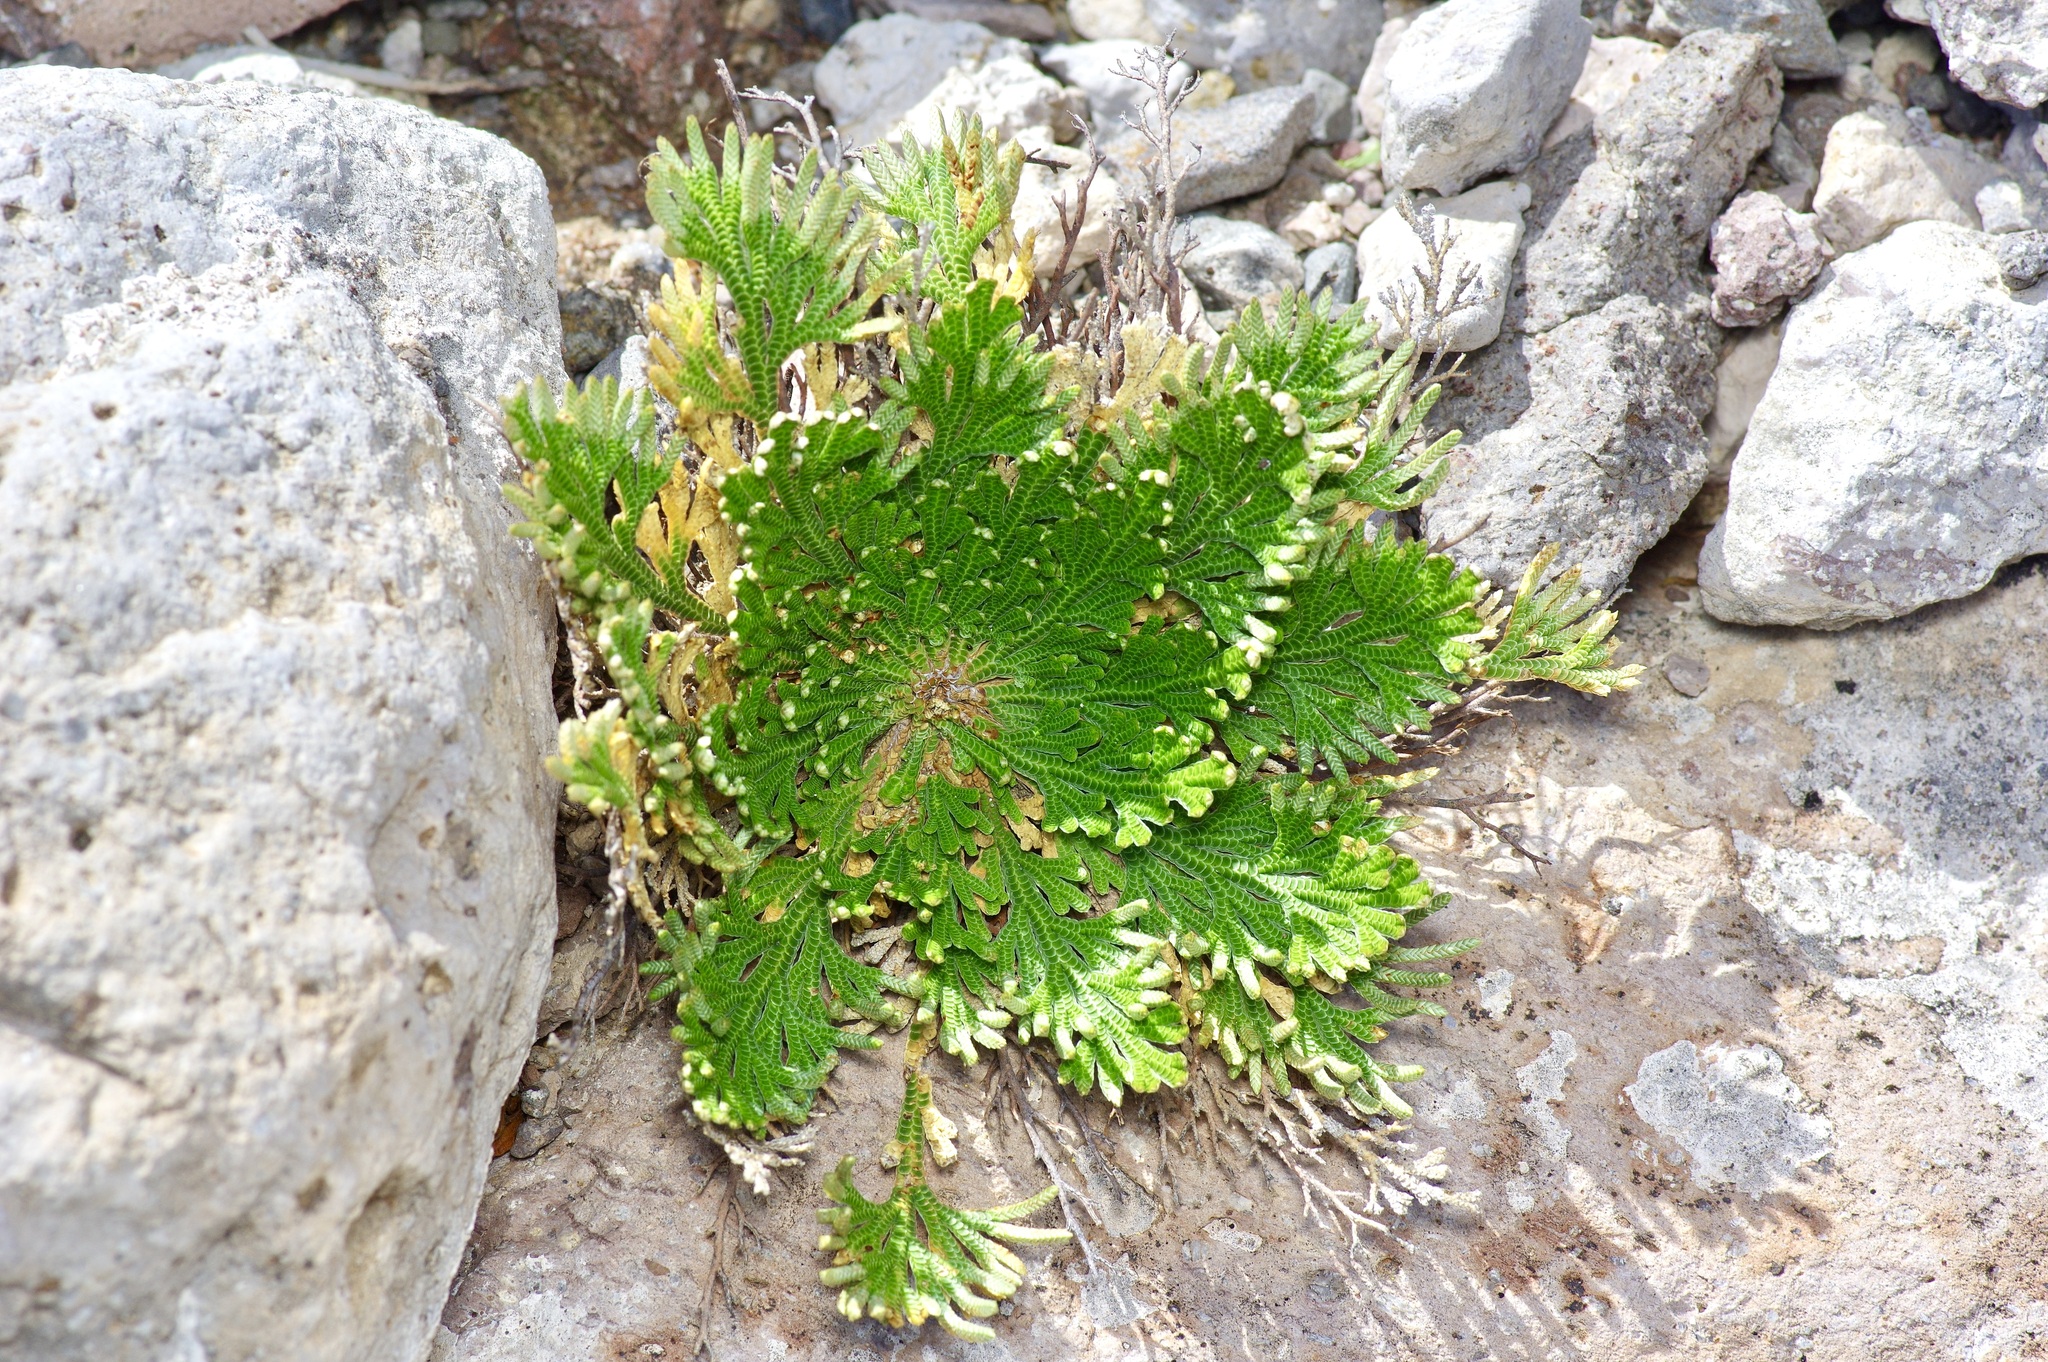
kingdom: Plantae
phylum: Tracheophyta
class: Lycopodiopsida
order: Selaginellales
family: Selaginellaceae
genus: Selaginella
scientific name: Selaginella lepidophylla
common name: Rose-of-jericho
